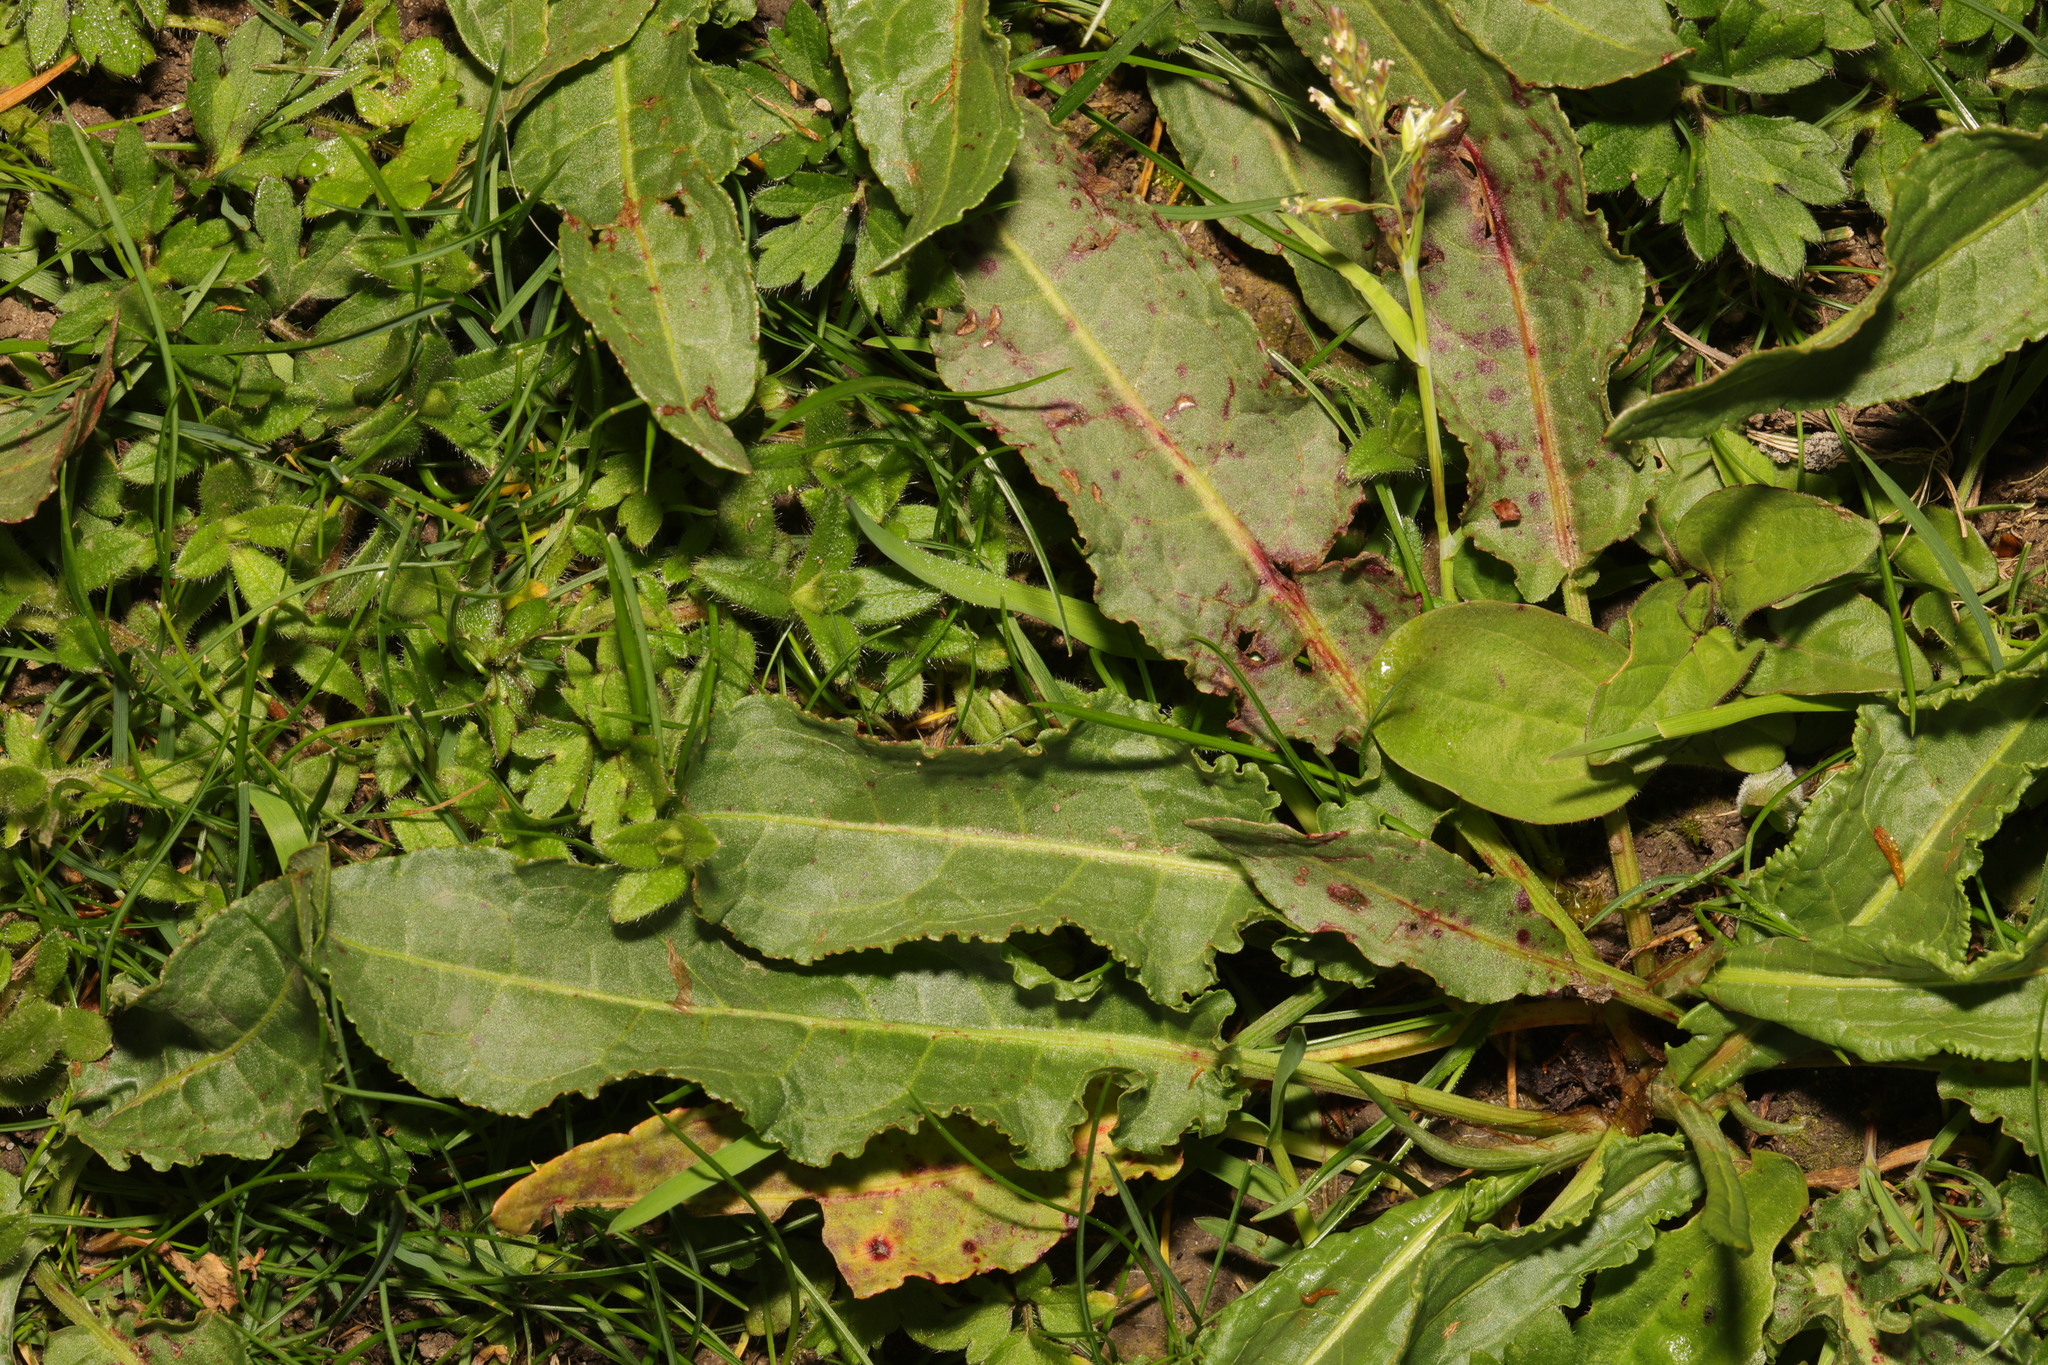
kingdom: Plantae
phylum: Tracheophyta
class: Magnoliopsida
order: Caryophyllales
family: Polygonaceae
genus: Rumex
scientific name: Rumex crispus
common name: Curled dock
